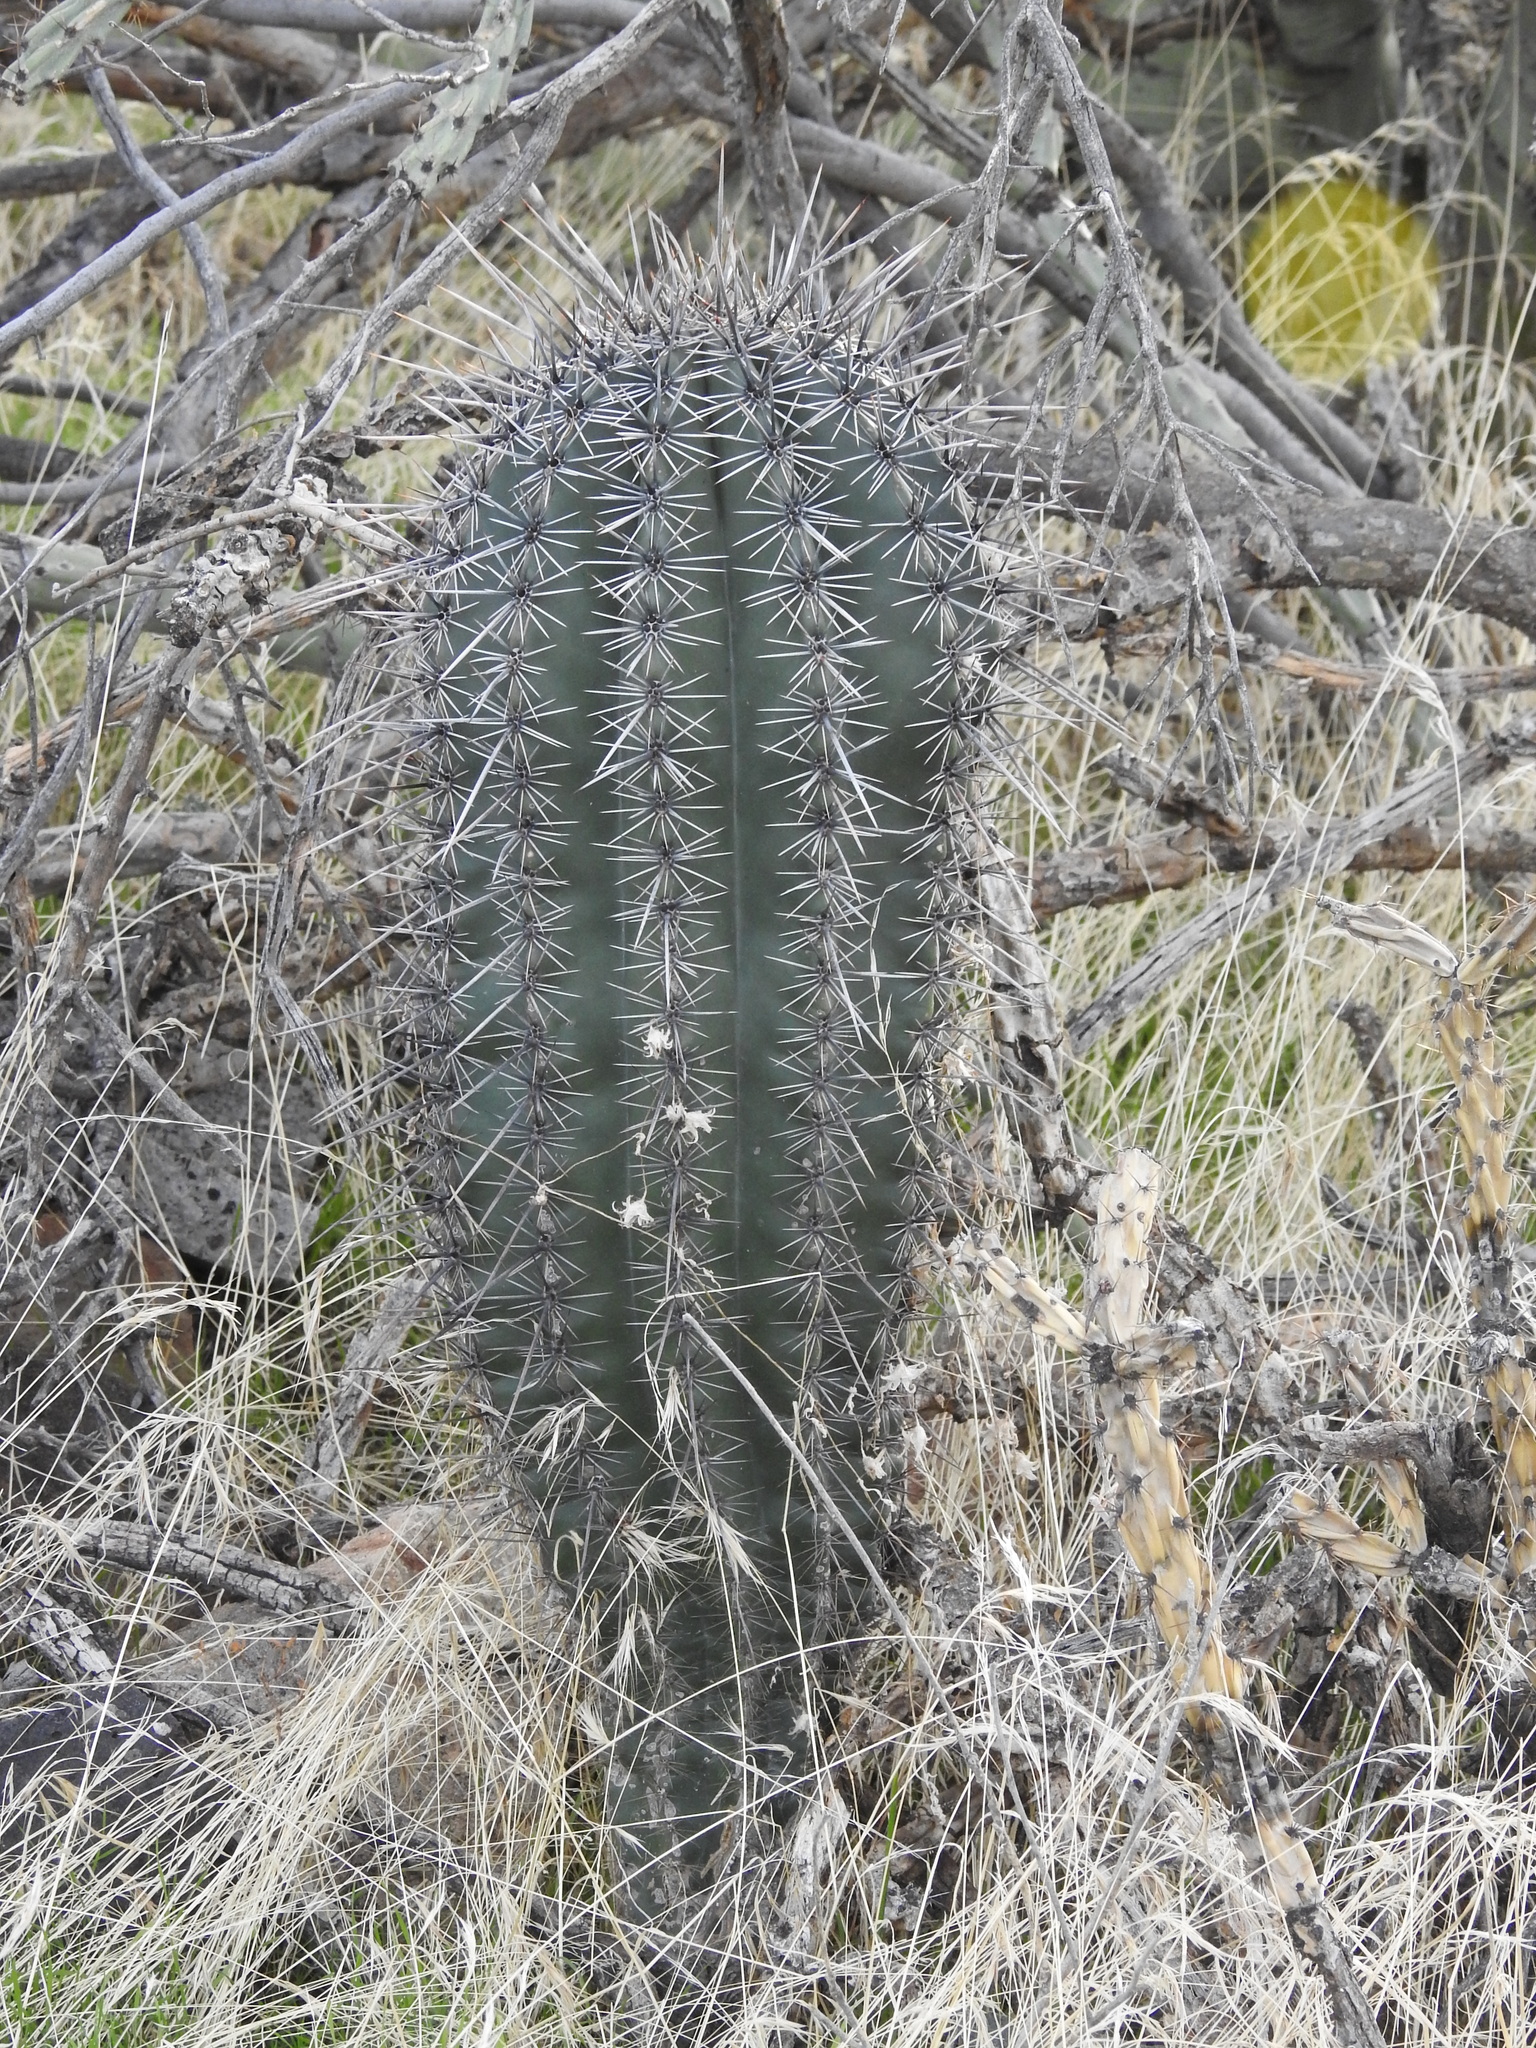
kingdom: Plantae
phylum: Tracheophyta
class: Magnoliopsida
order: Caryophyllales
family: Cactaceae
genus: Carnegiea
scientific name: Carnegiea gigantea
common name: Saguaro
